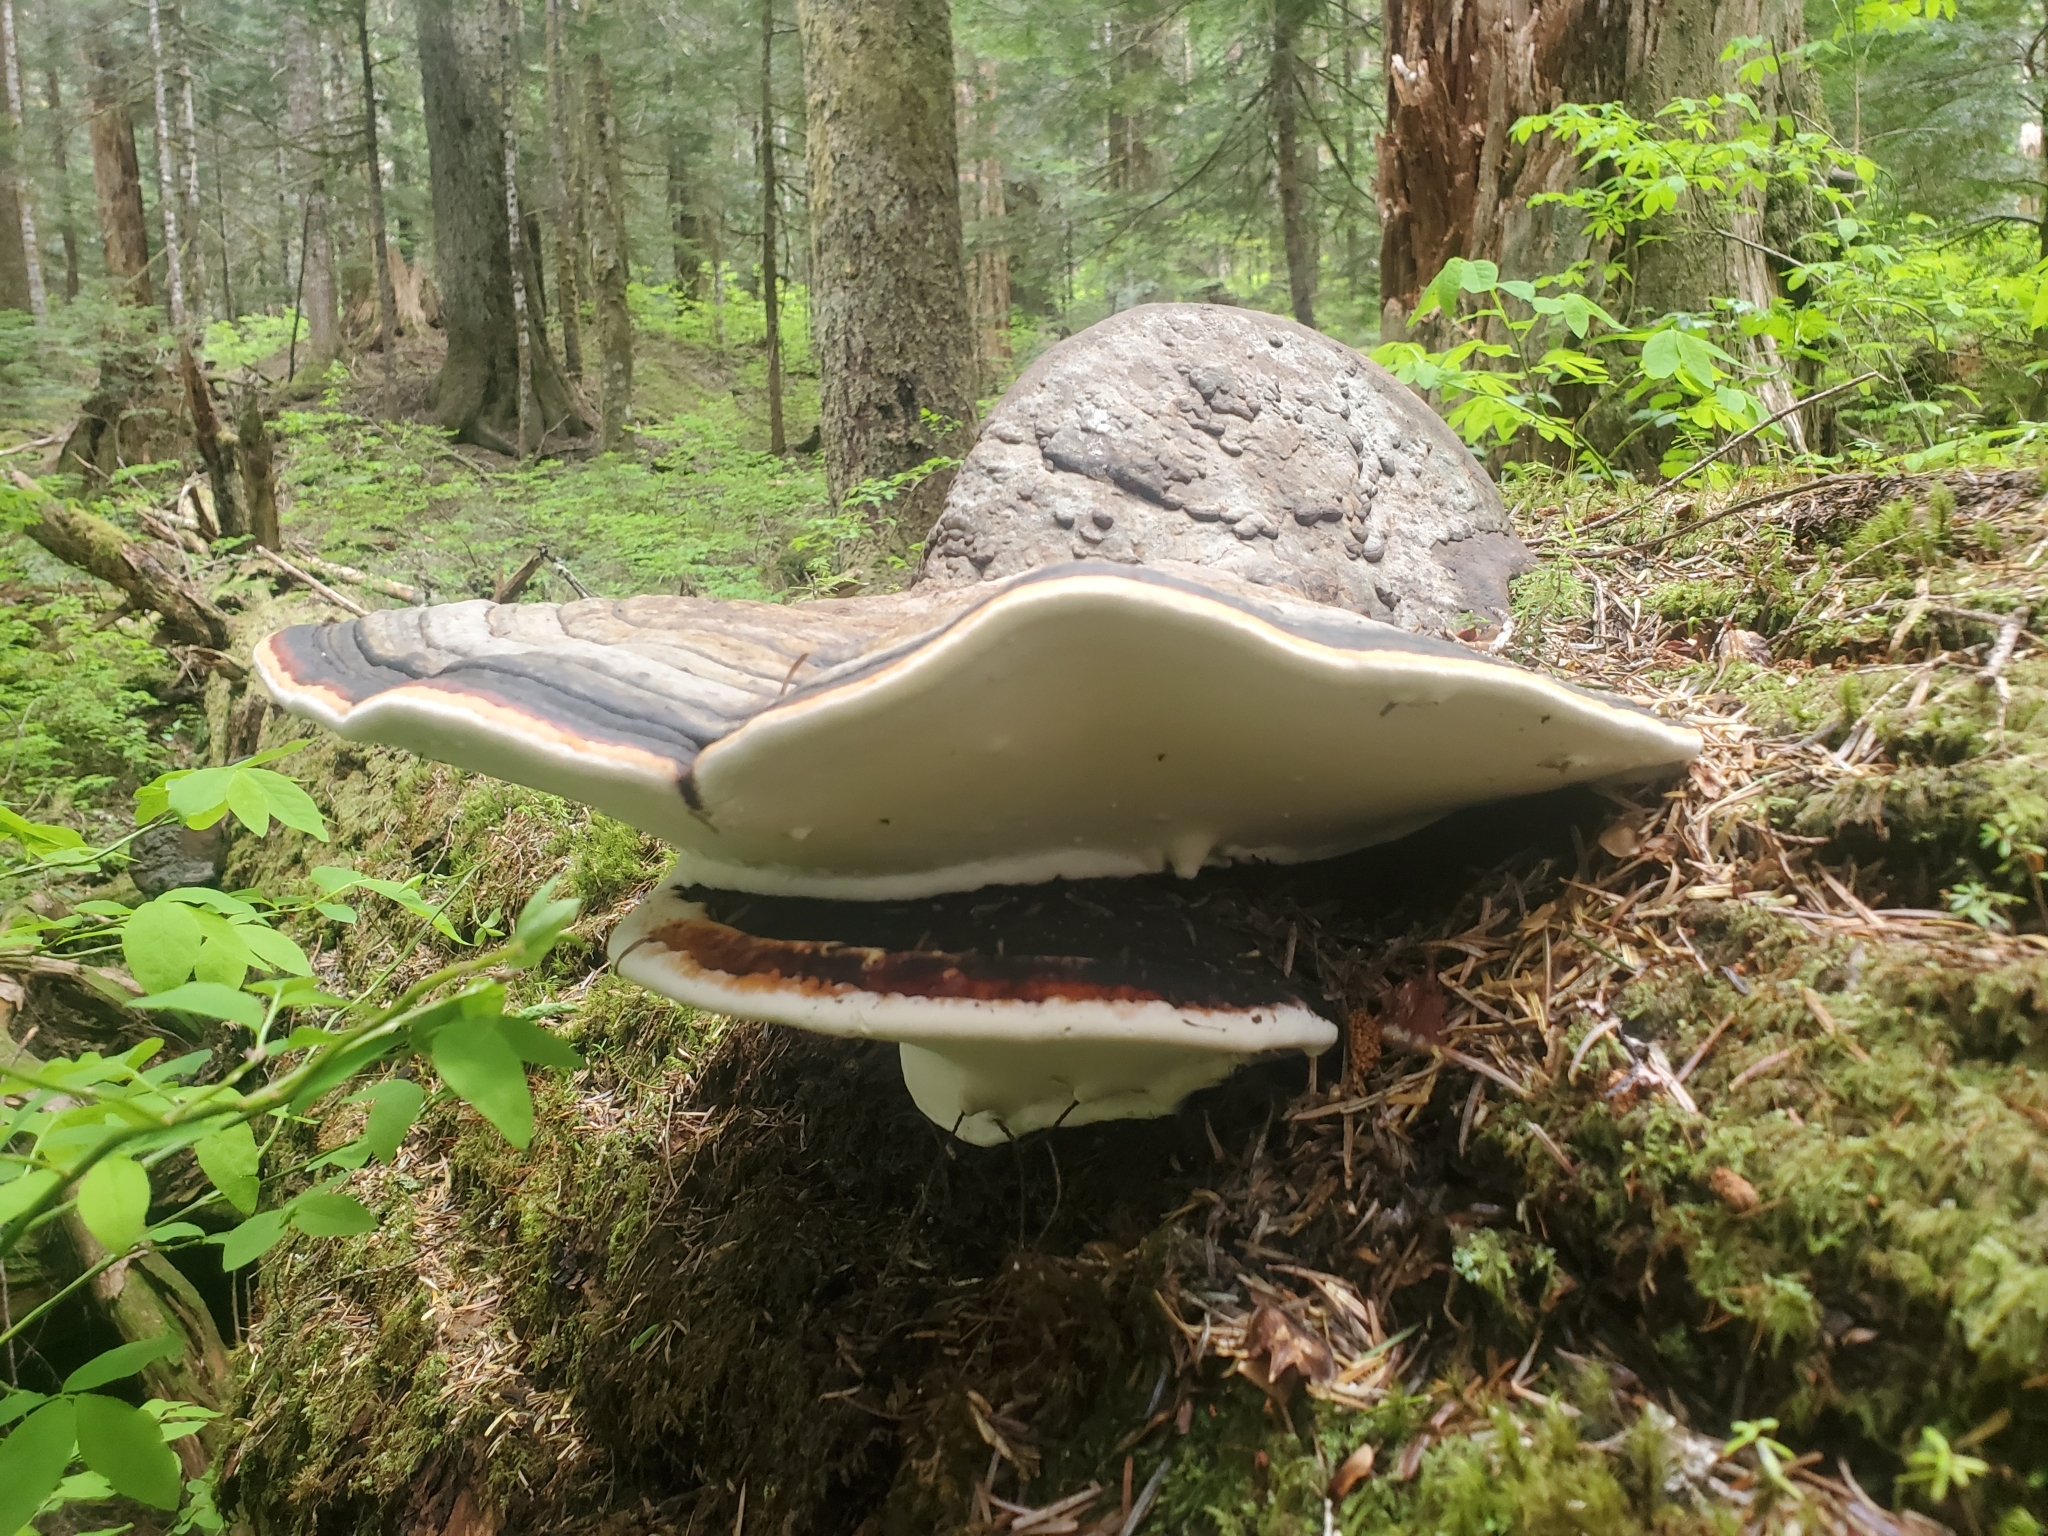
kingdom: Fungi
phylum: Basidiomycota
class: Agaricomycetes
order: Polyporales
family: Fomitopsidaceae
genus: Fomitopsis
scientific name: Fomitopsis mounceae
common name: Northern red belt
